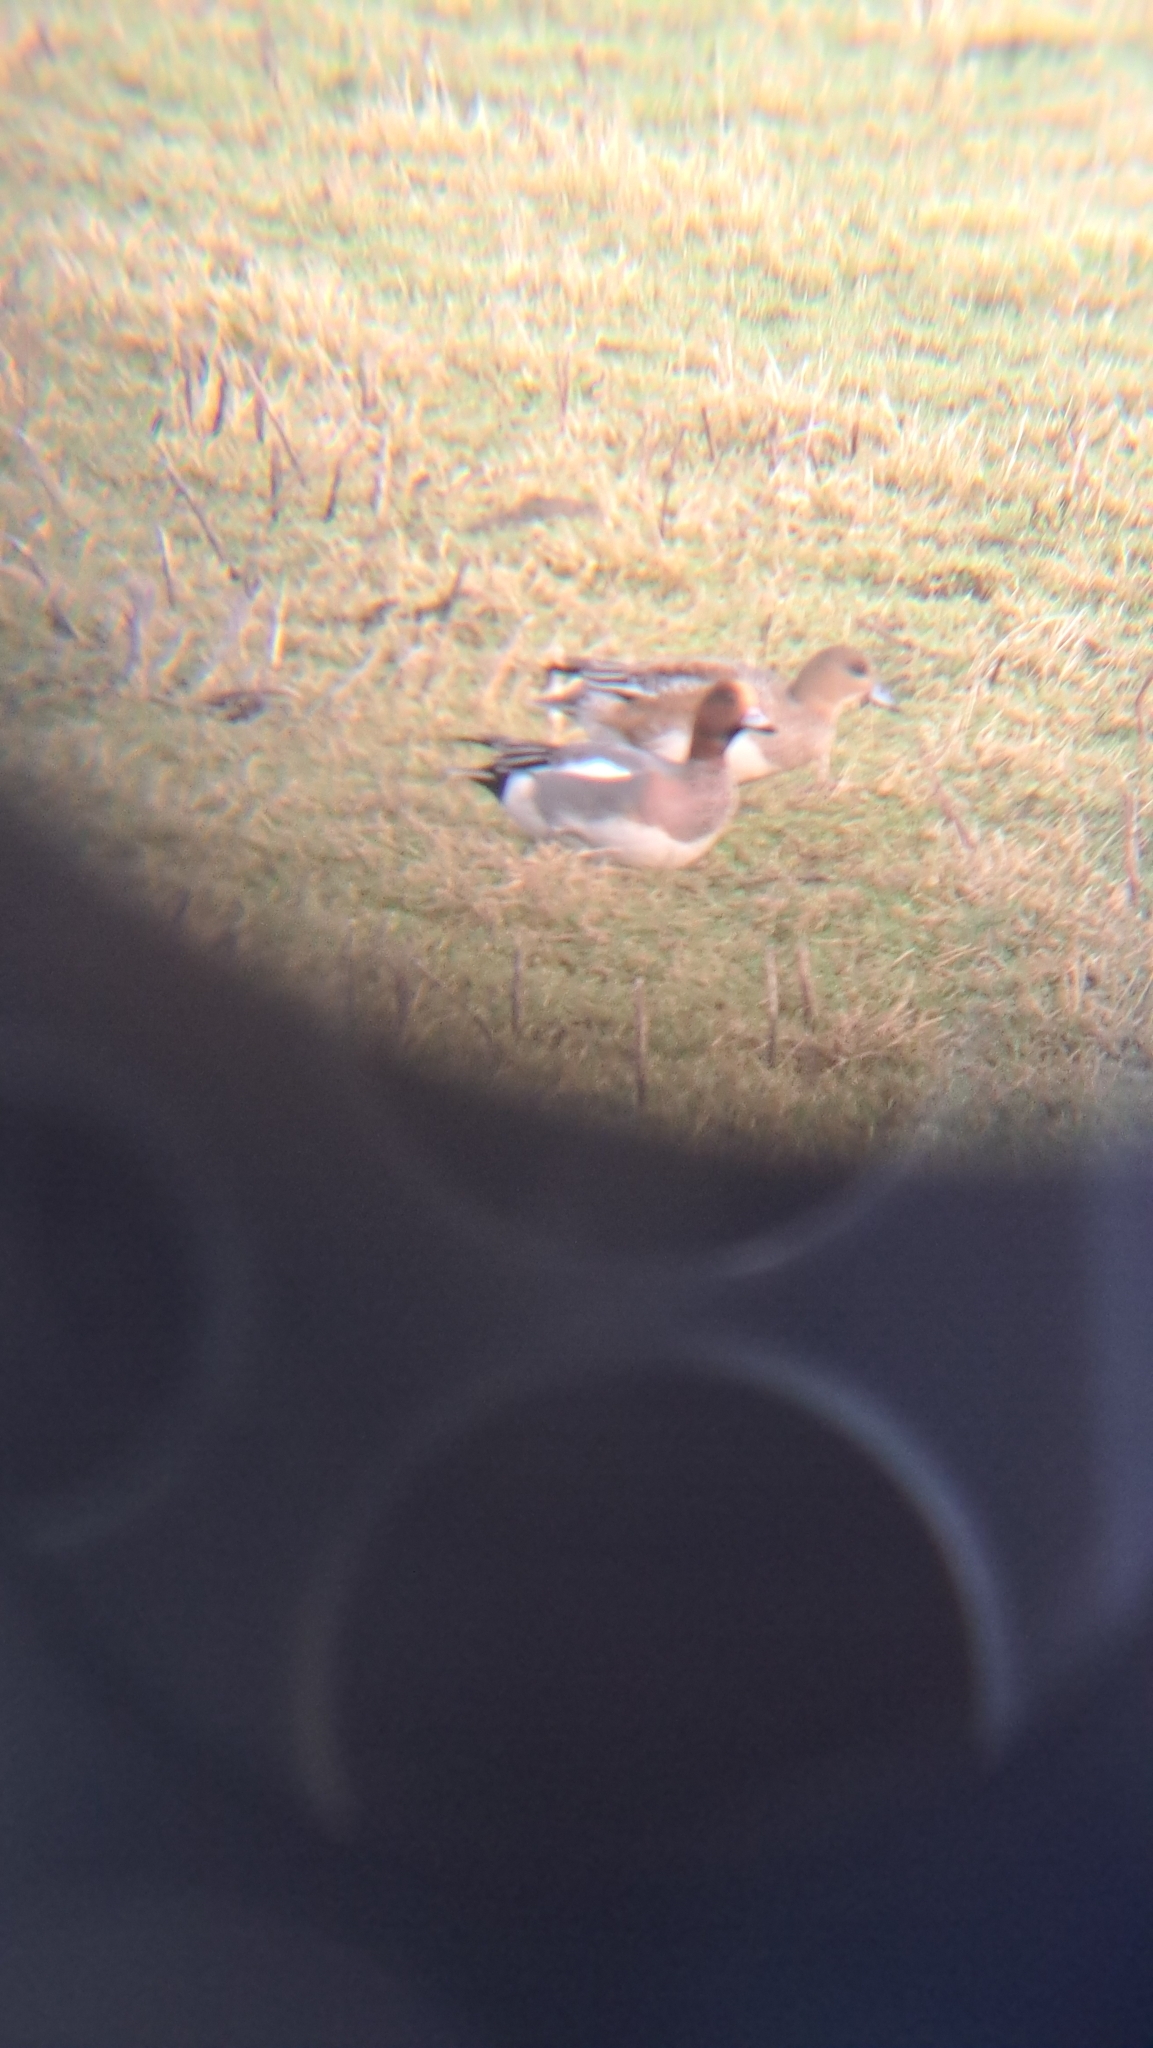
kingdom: Animalia
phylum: Chordata
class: Aves
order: Anseriformes
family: Anatidae
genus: Mareca
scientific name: Mareca penelope
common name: Eurasian wigeon
